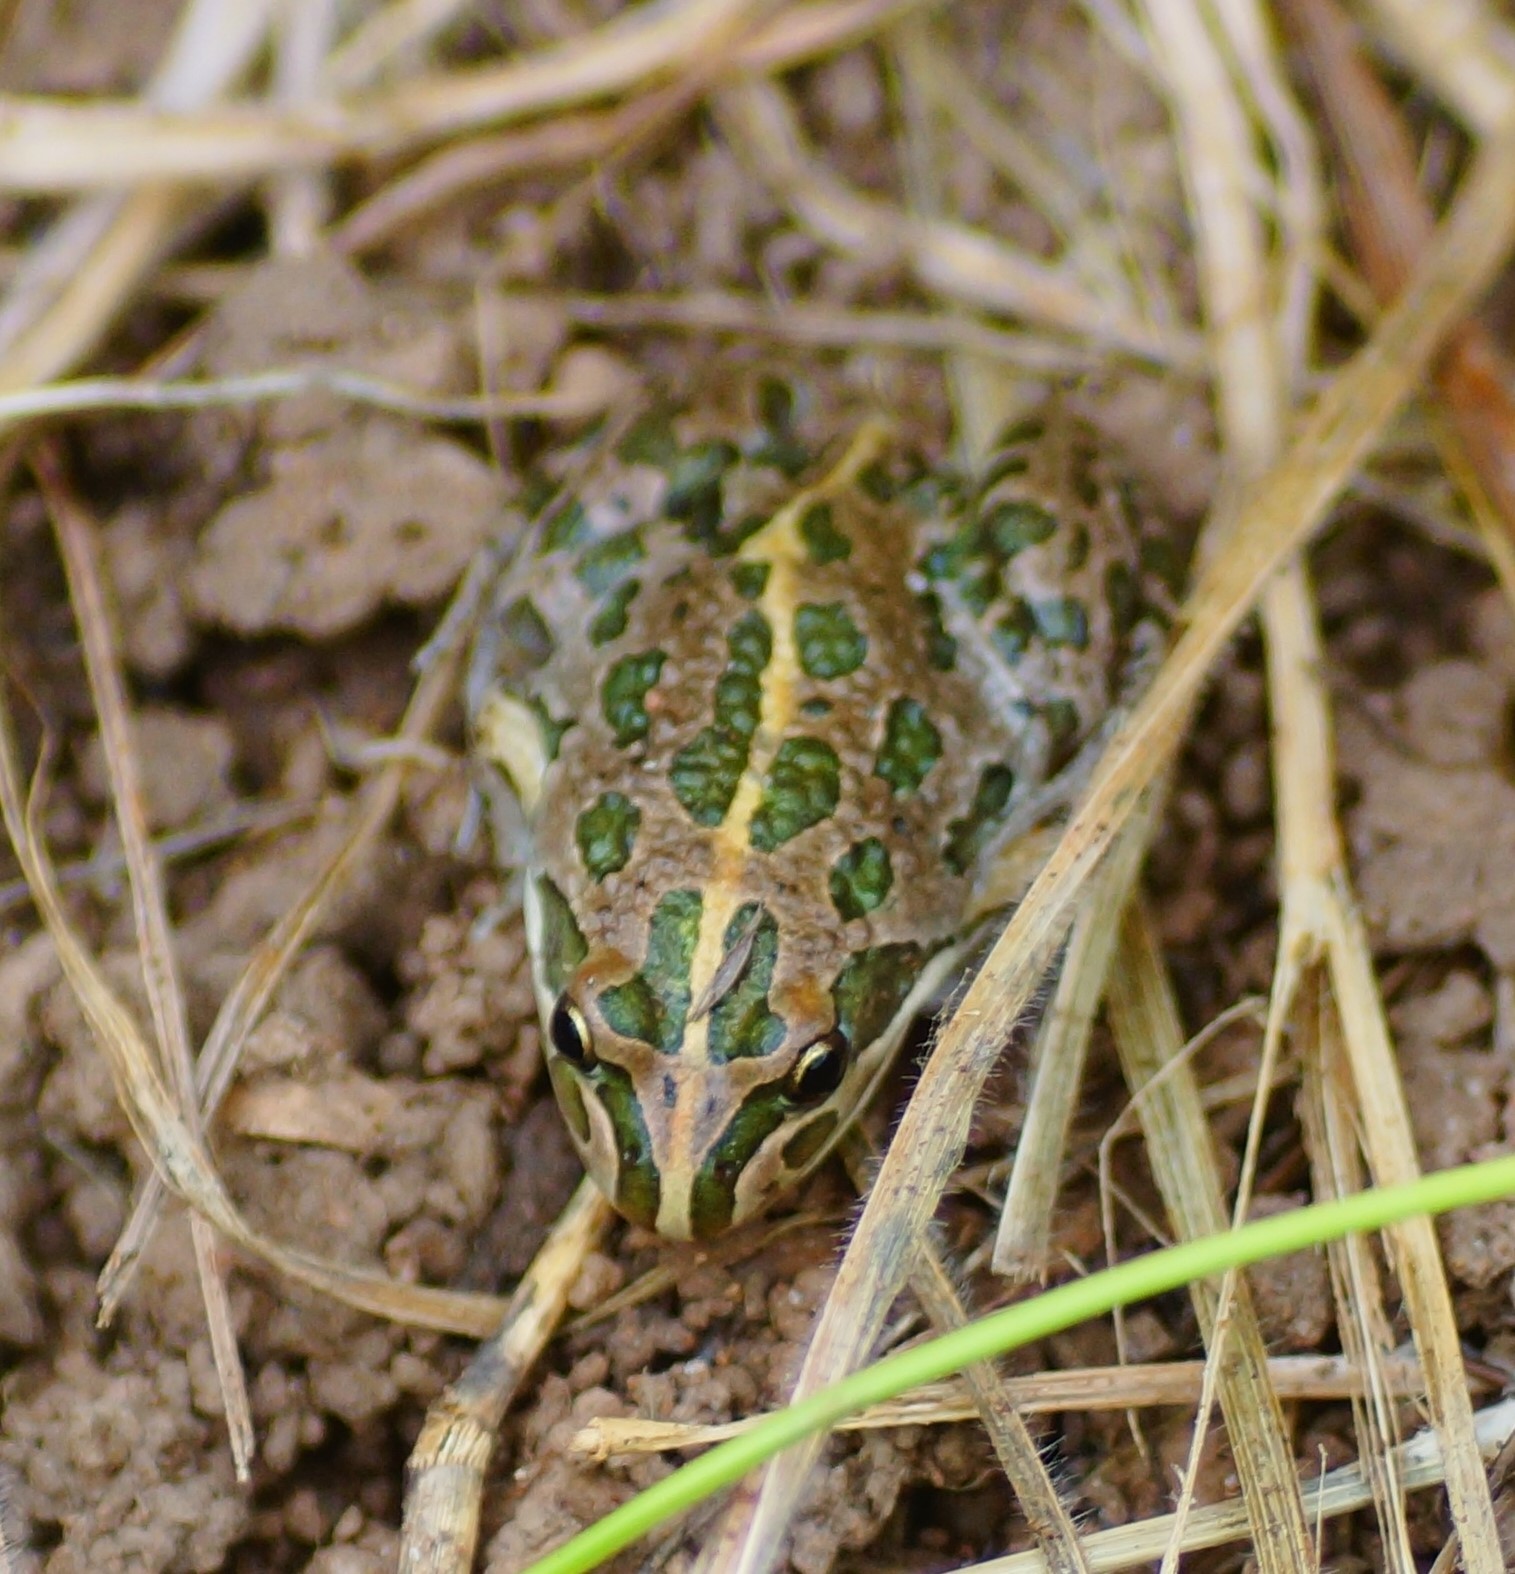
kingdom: Animalia
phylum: Chordata
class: Amphibia
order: Anura
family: Limnodynastidae
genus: Limnodynastes
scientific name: Limnodynastes tasmaniensis
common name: Spotted marsh frog
